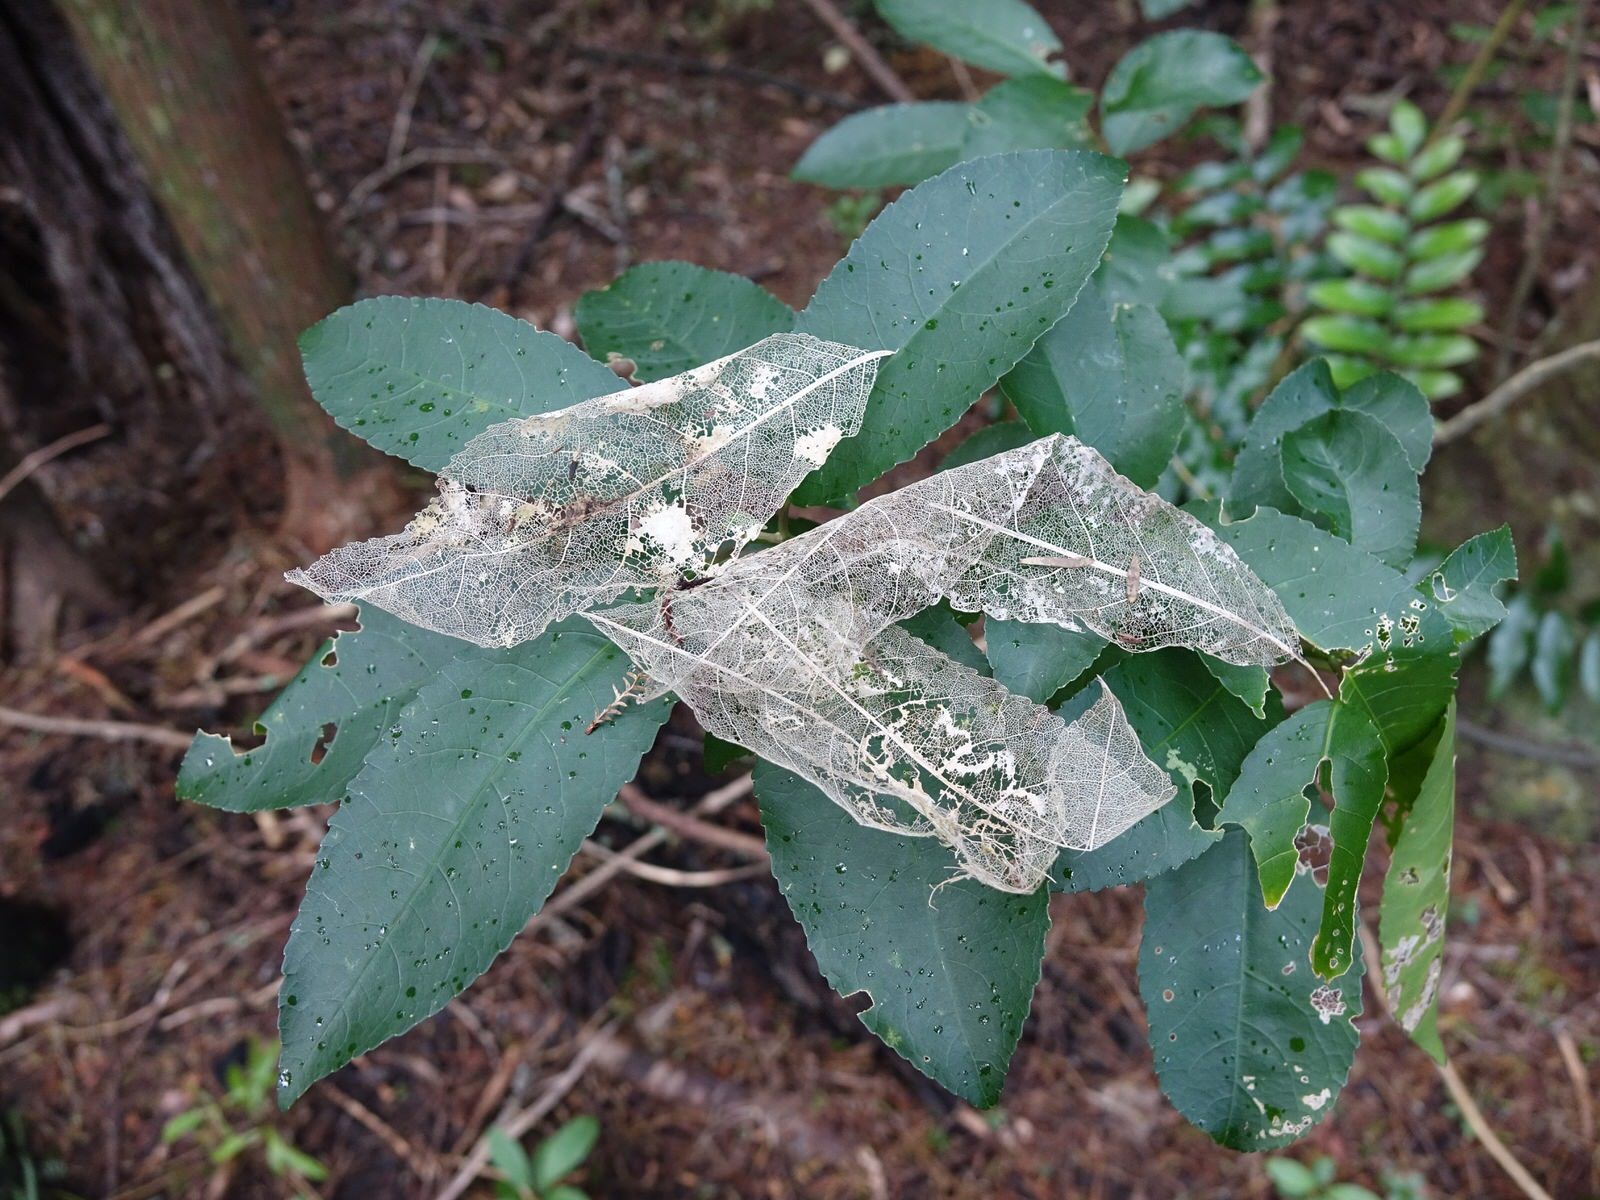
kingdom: Plantae
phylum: Tracheophyta
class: Magnoliopsida
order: Malpighiales
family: Violaceae
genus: Melicytus
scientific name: Melicytus ramiflorus
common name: Mahoe
